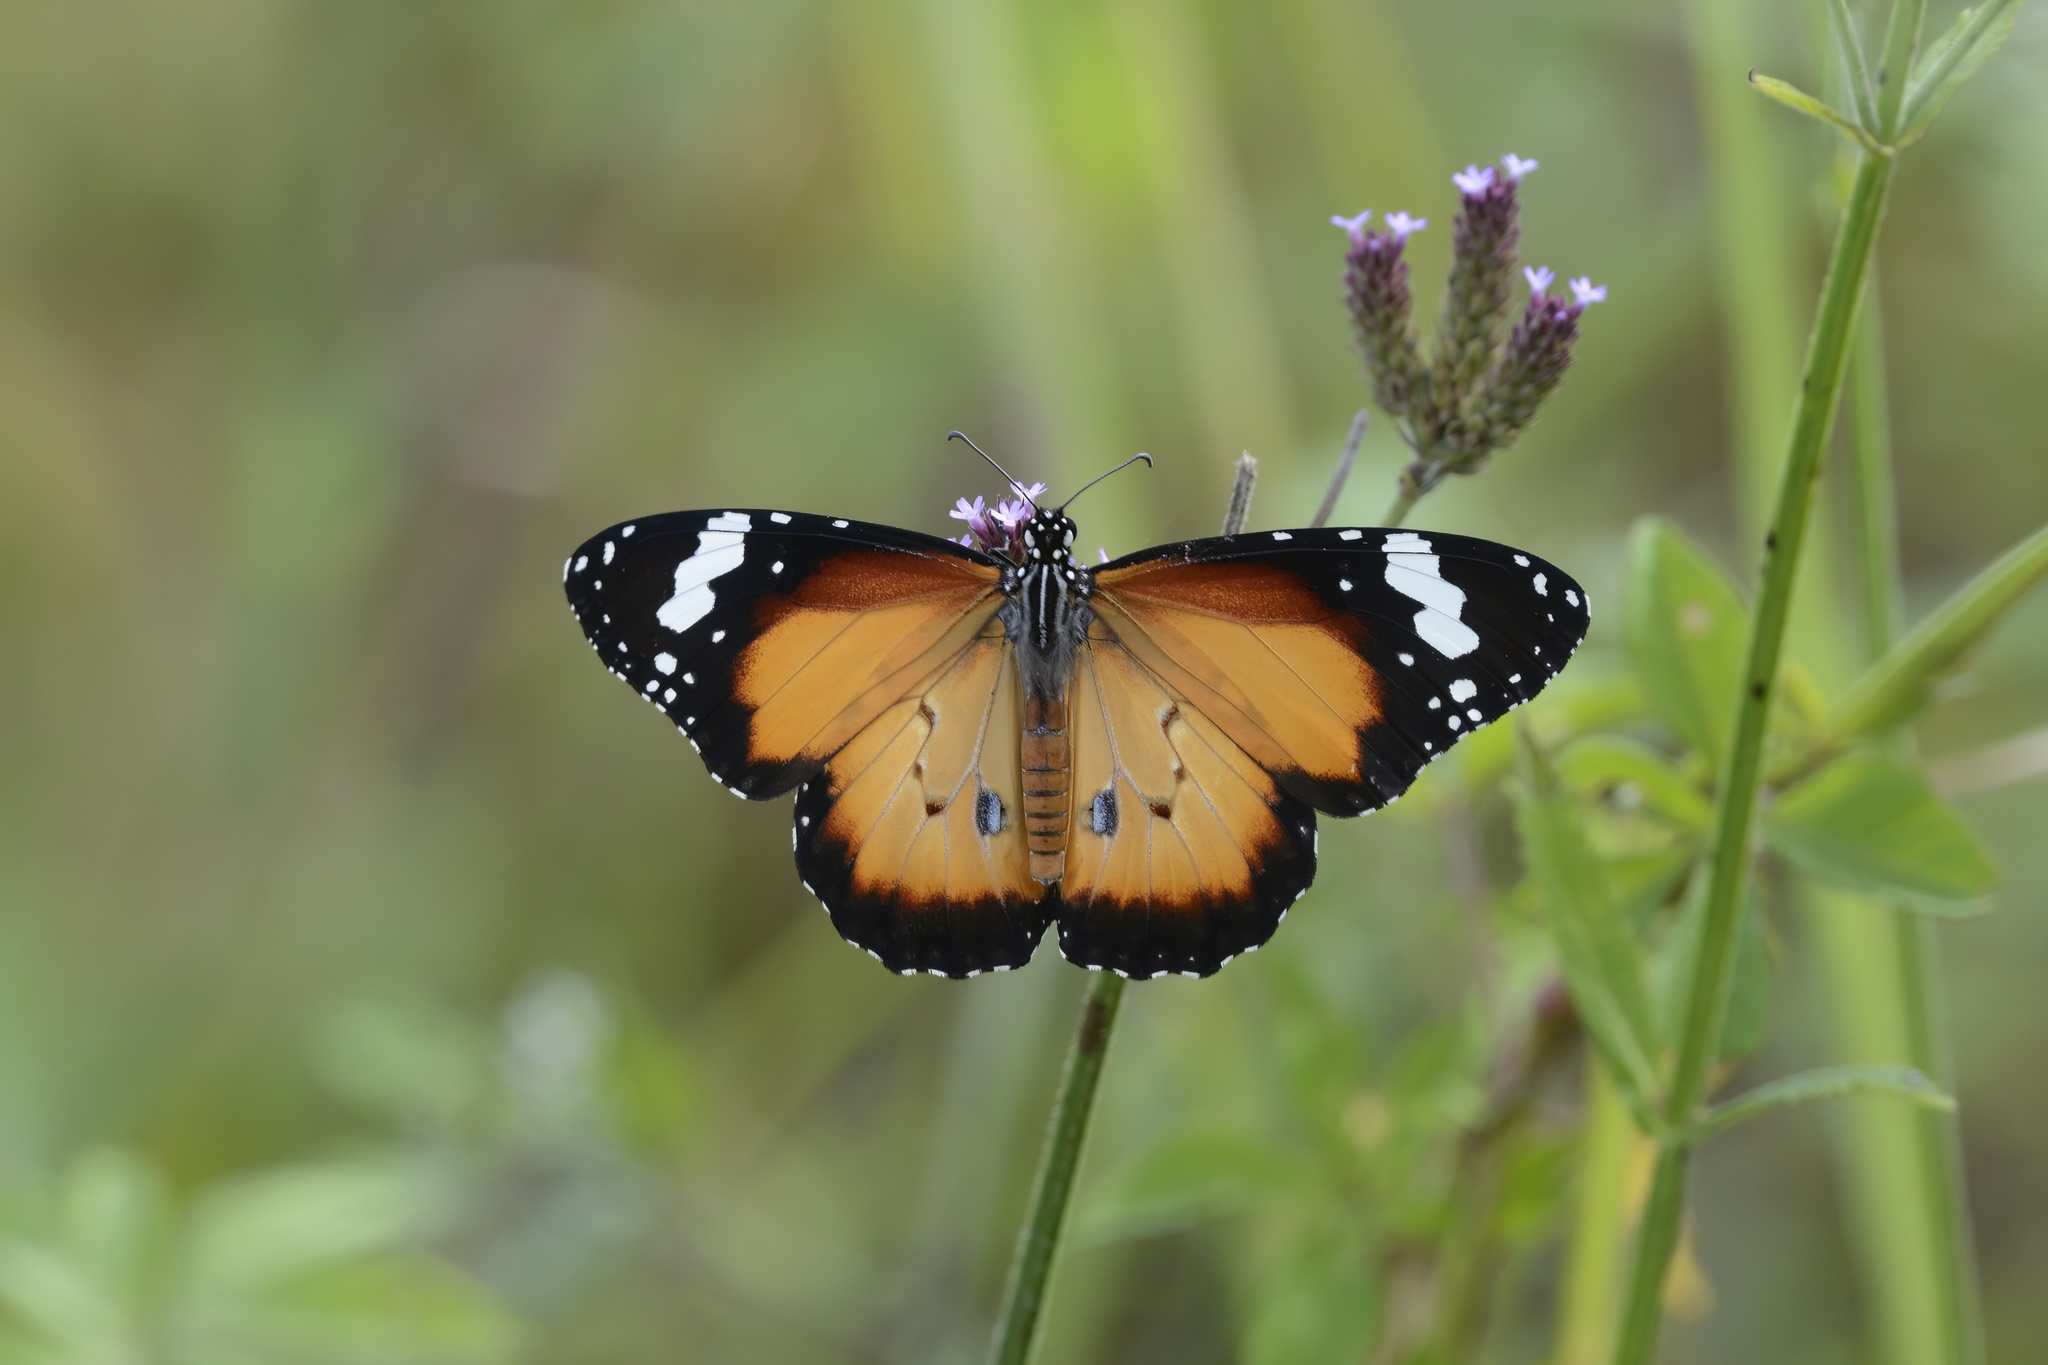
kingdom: Animalia
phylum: Arthropoda
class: Insecta
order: Lepidoptera
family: Nymphalidae
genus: Danaus
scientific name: Danaus chrysippus
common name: Plain tiger
